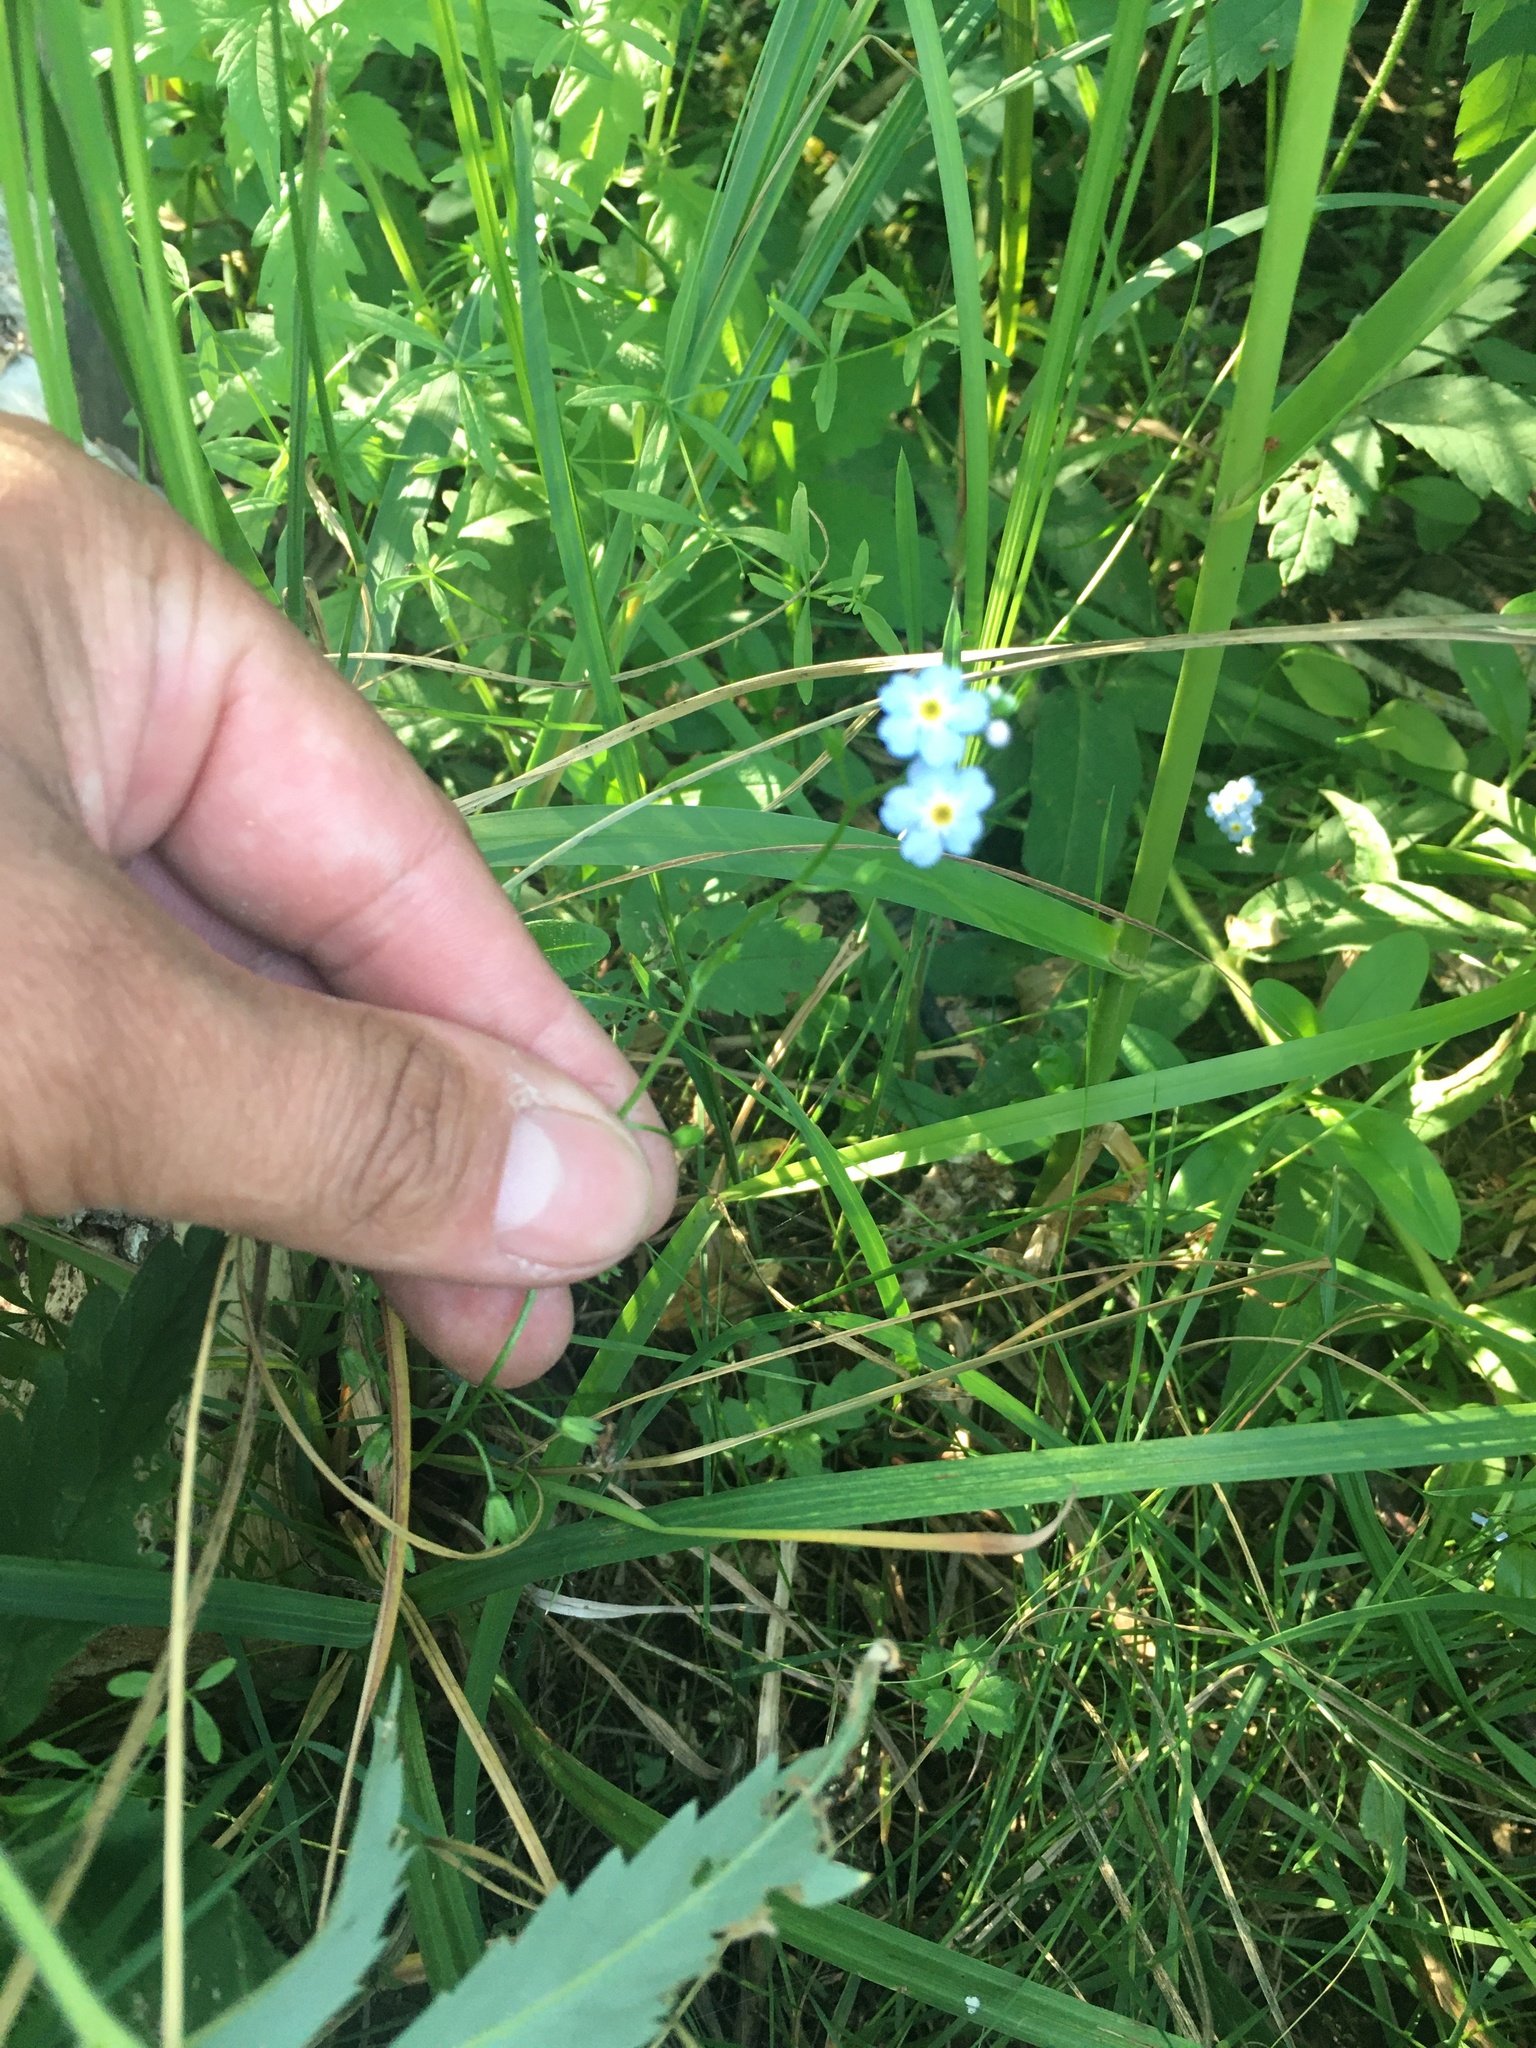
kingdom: Plantae
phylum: Tracheophyta
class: Magnoliopsida
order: Boraginales
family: Boraginaceae
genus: Myosotis
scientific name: Myosotis scorpioides
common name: Water forget-me-not
